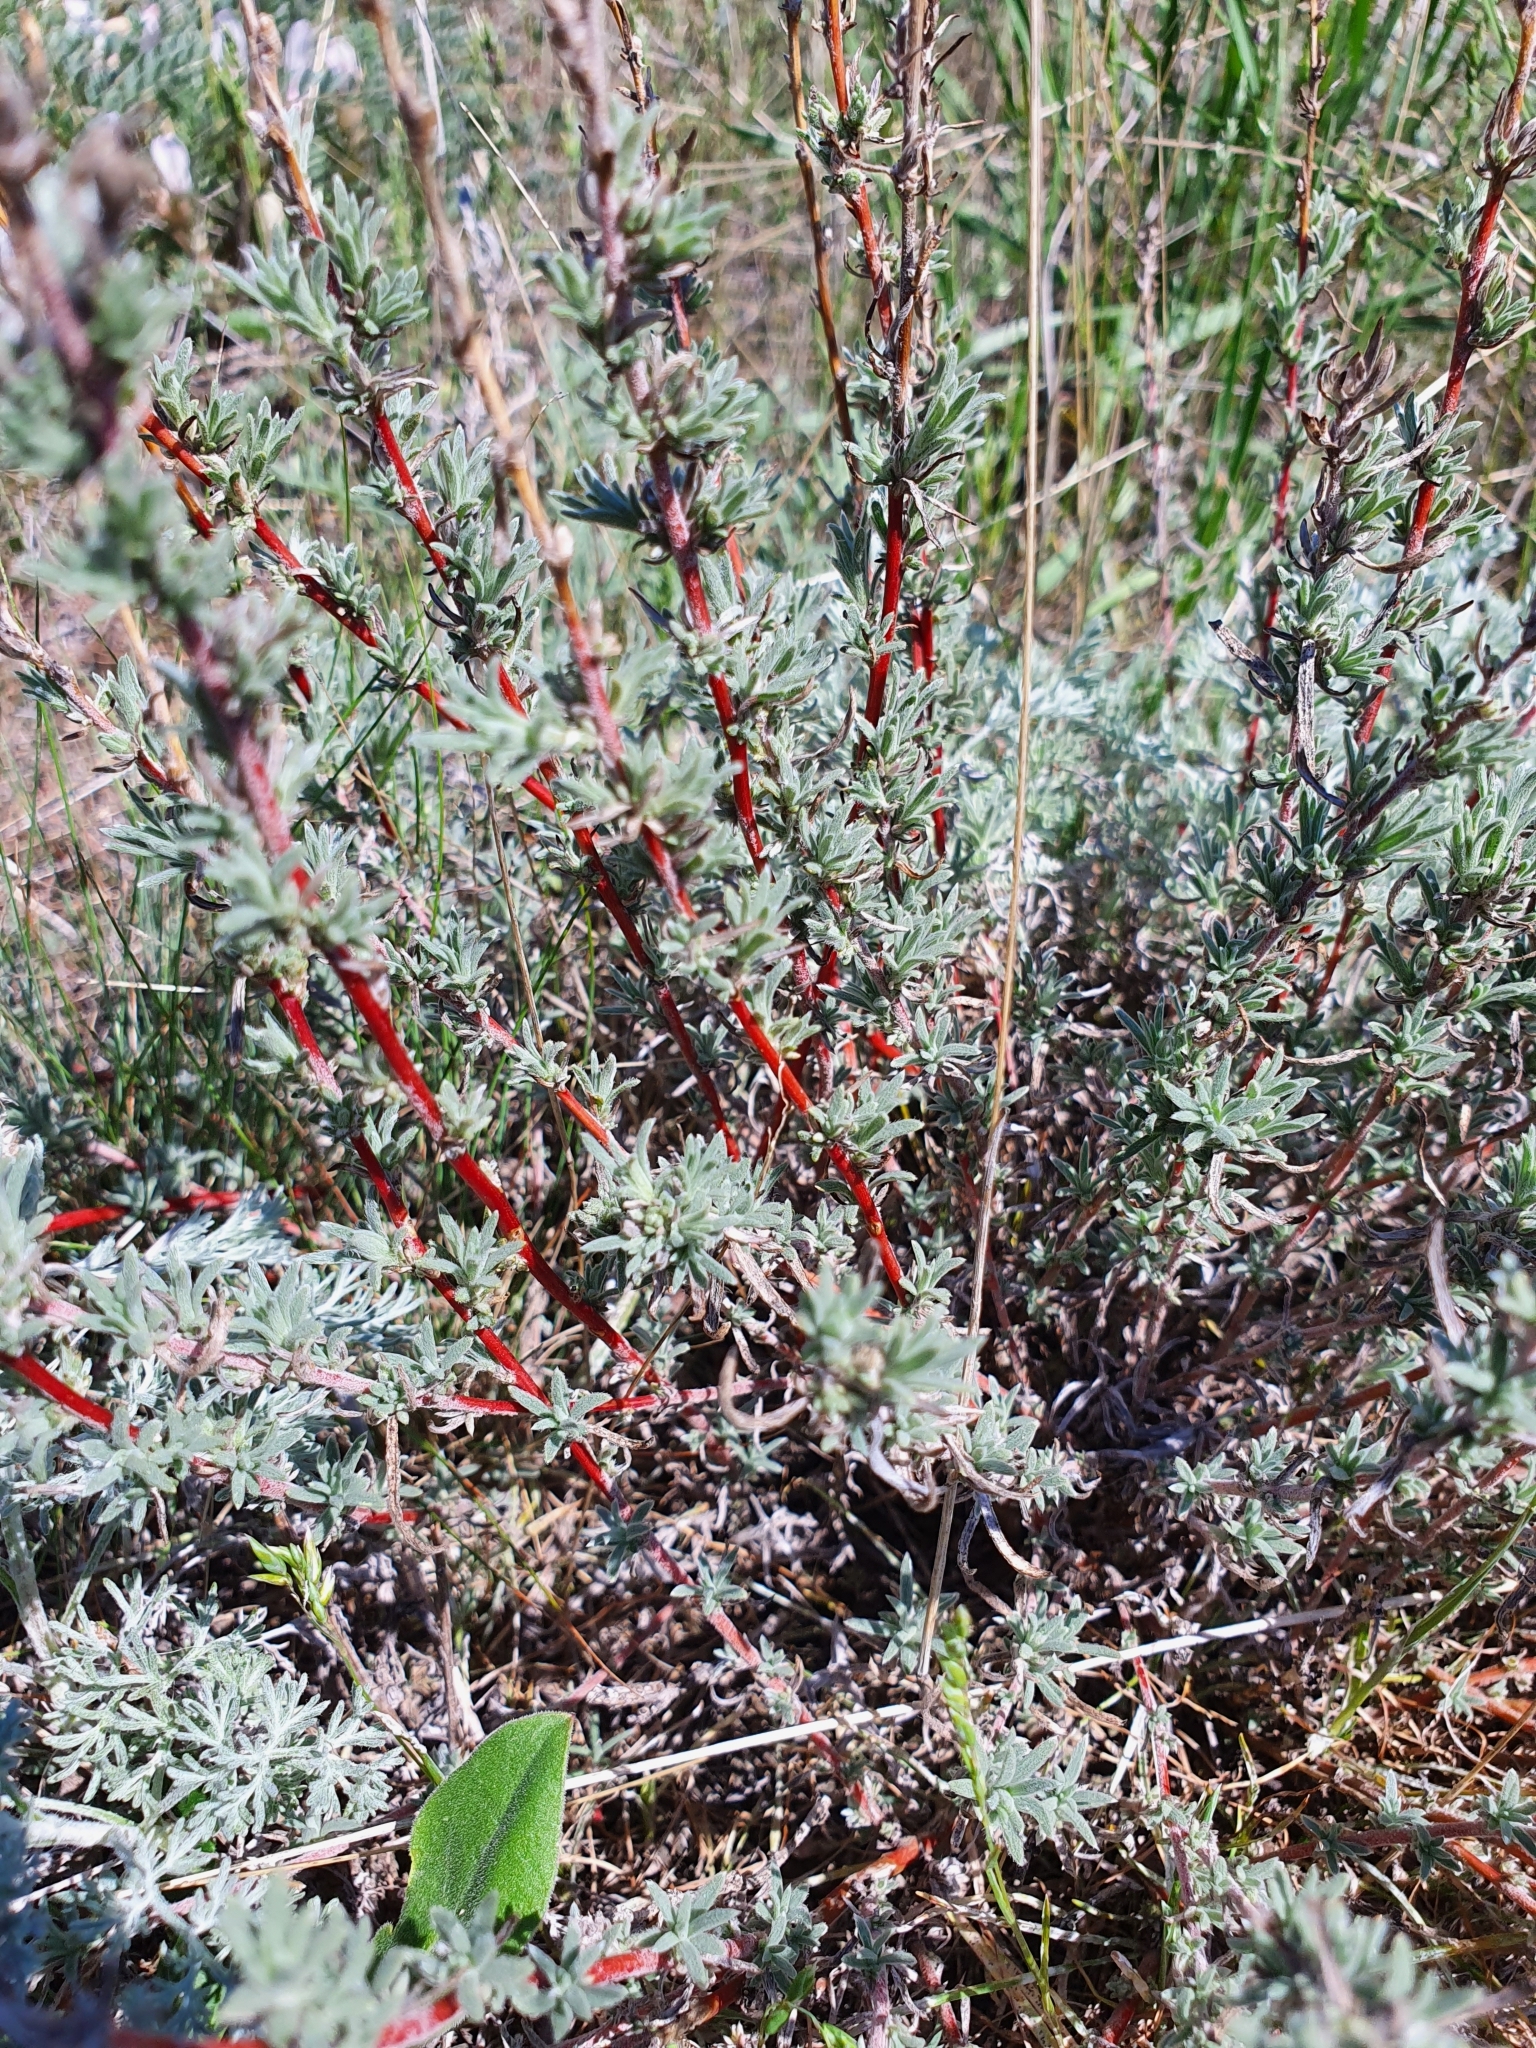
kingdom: Plantae
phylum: Tracheophyta
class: Magnoliopsida
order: Caryophyllales
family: Amaranthaceae
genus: Bassia
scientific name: Bassia prostrata
